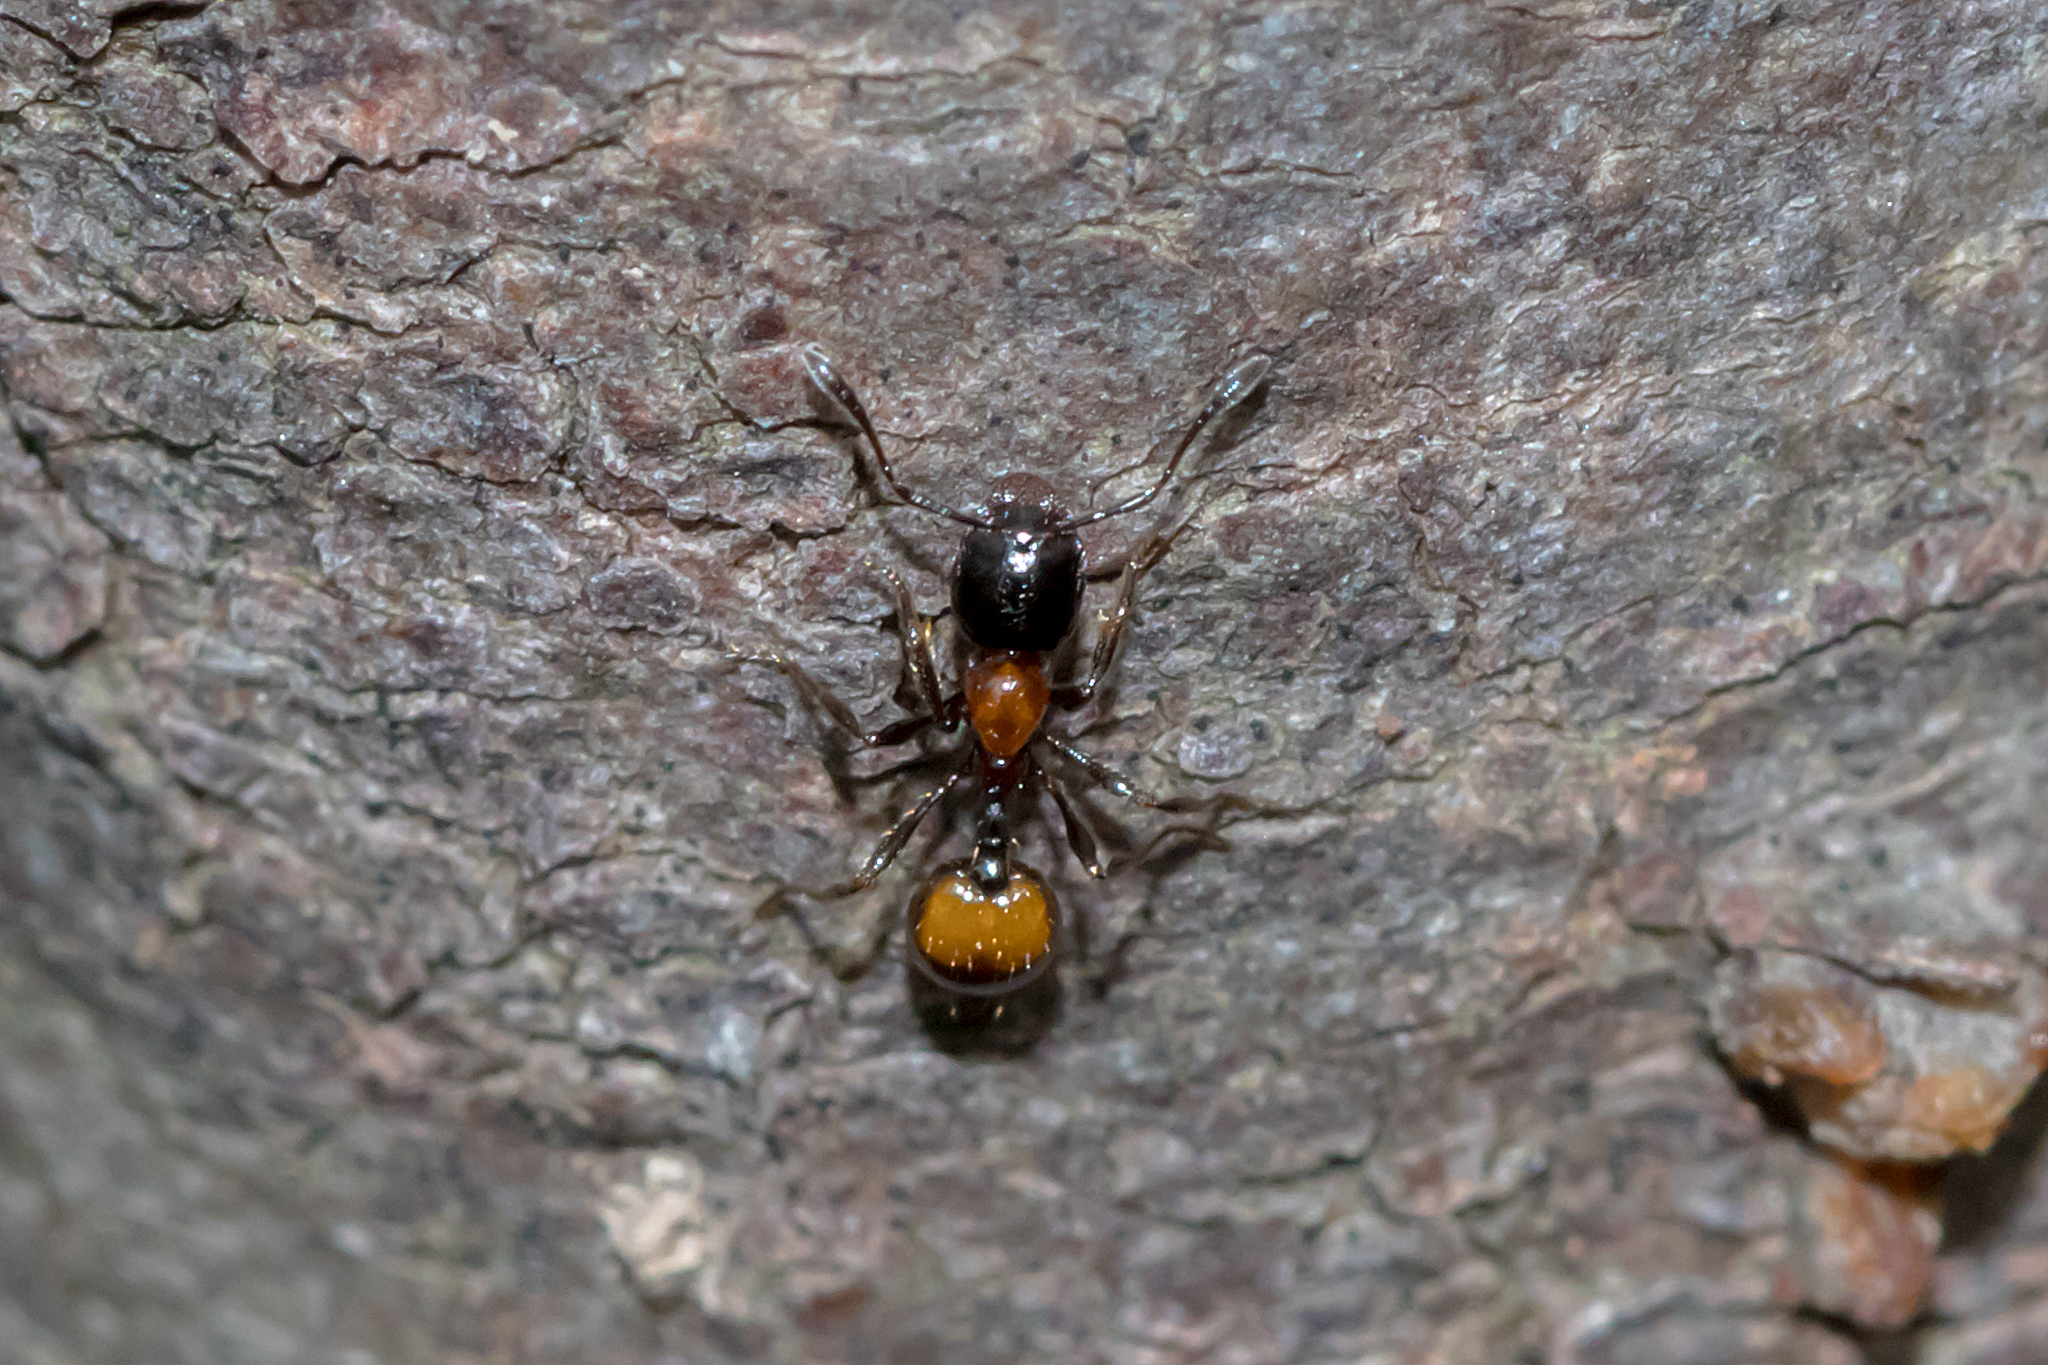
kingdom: Animalia
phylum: Arthropoda
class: Insecta
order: Hymenoptera
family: Formicidae
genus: Chelaner
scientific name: Chelaner
